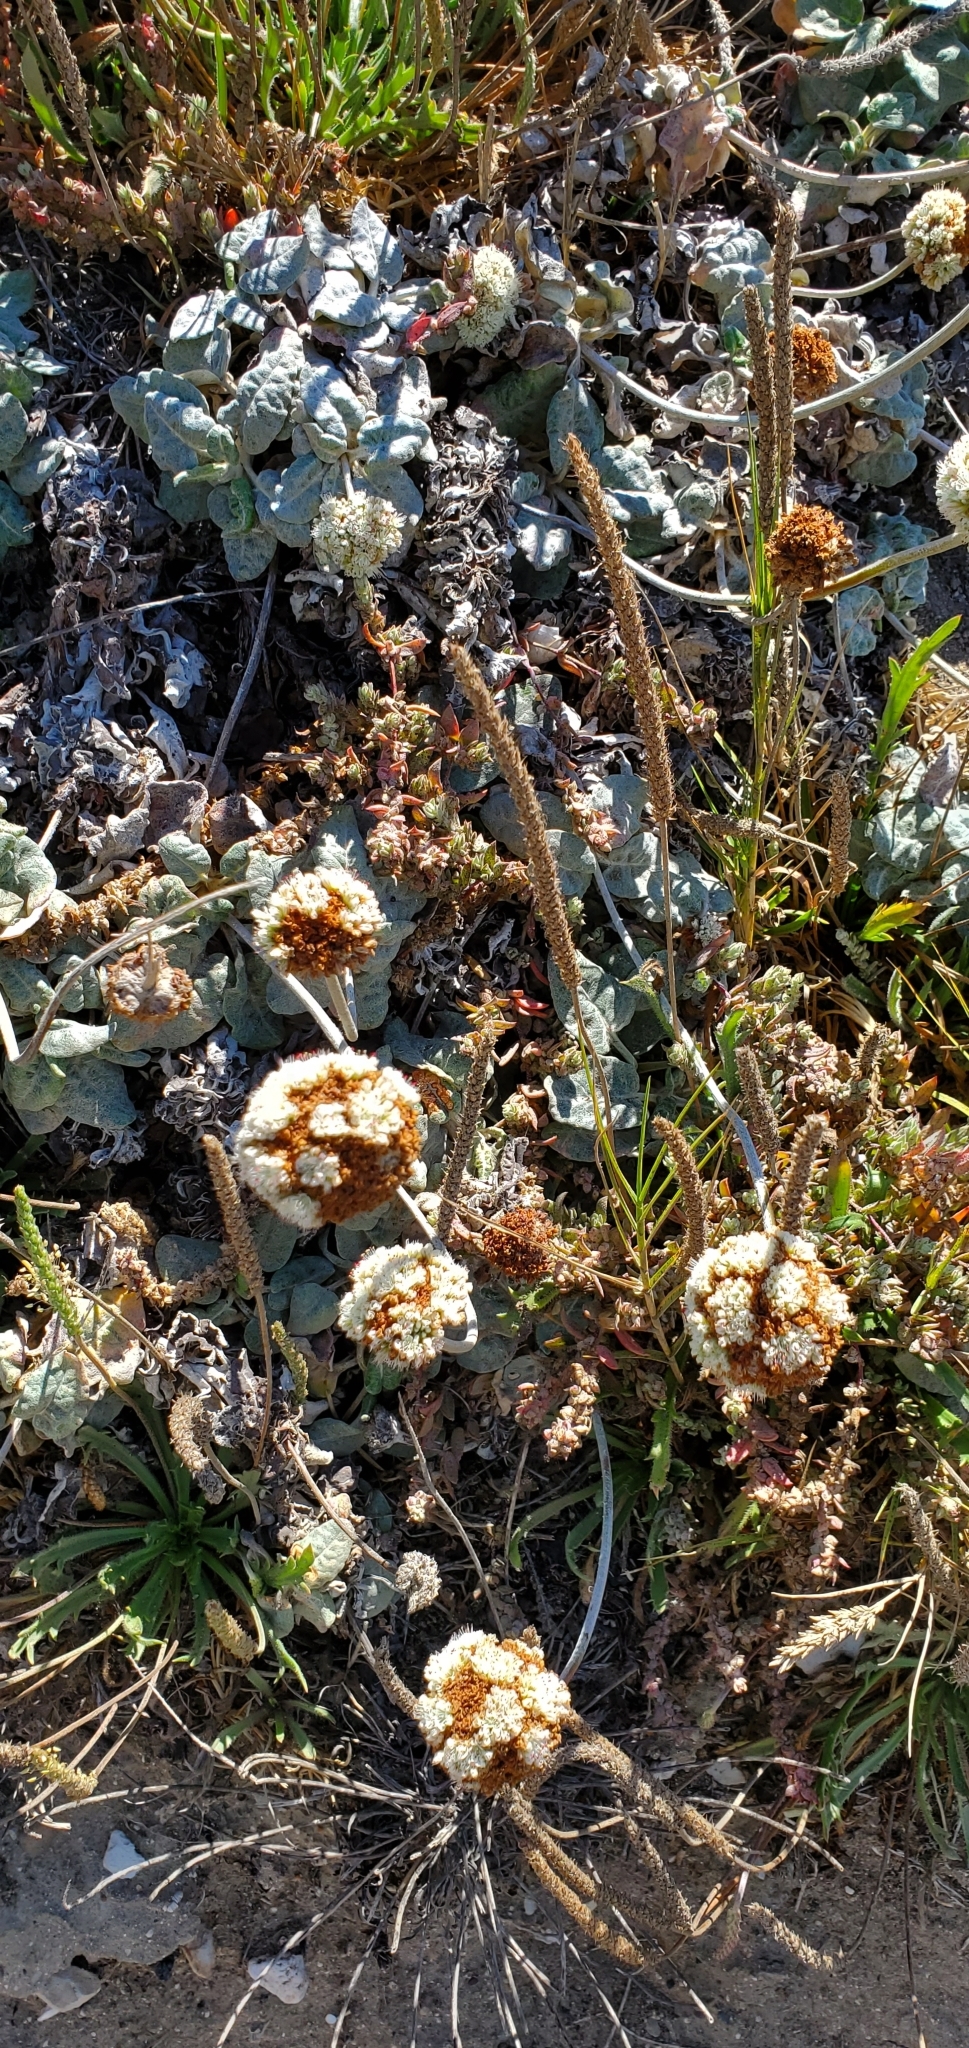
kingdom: Plantae
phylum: Tracheophyta
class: Magnoliopsida
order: Caryophyllales
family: Polygonaceae
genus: Eriogonum
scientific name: Eriogonum latifolium
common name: Seaside wild buckwheat
